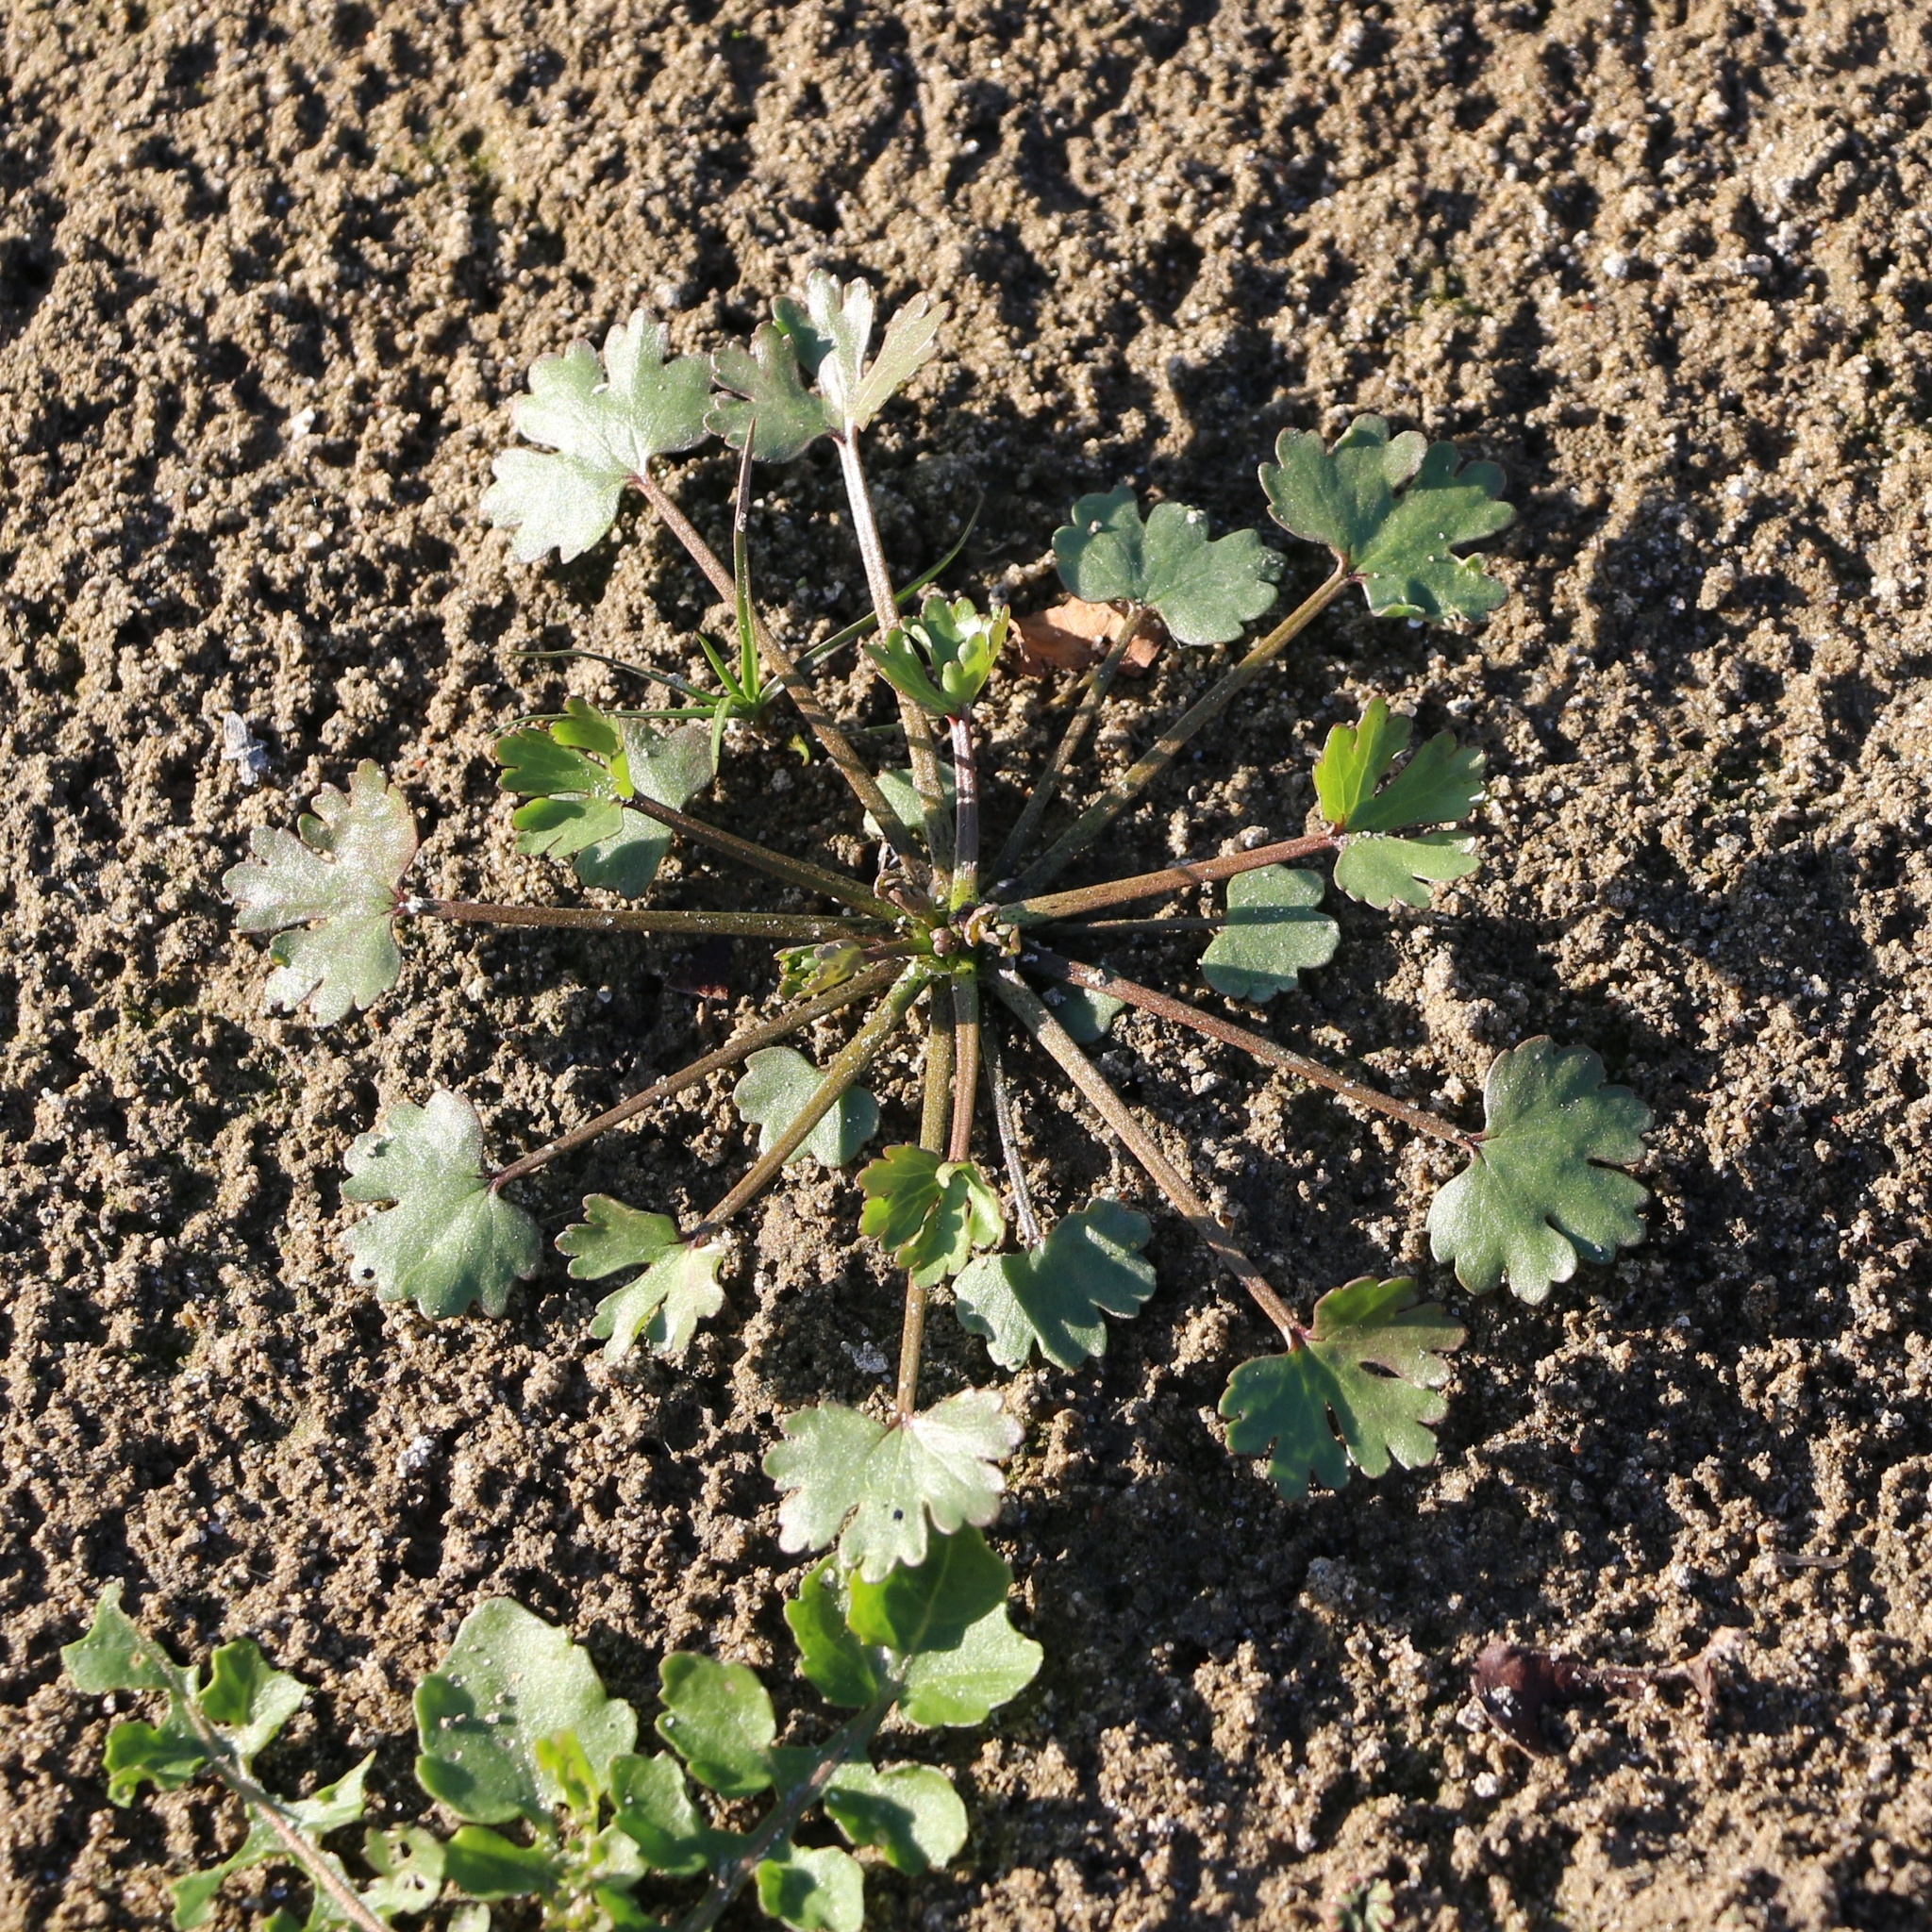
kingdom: Plantae
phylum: Tracheophyta
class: Magnoliopsida
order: Ranunculales
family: Ranunculaceae
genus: Ranunculus
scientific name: Ranunculus sceleratus
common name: Celery-leaved buttercup
